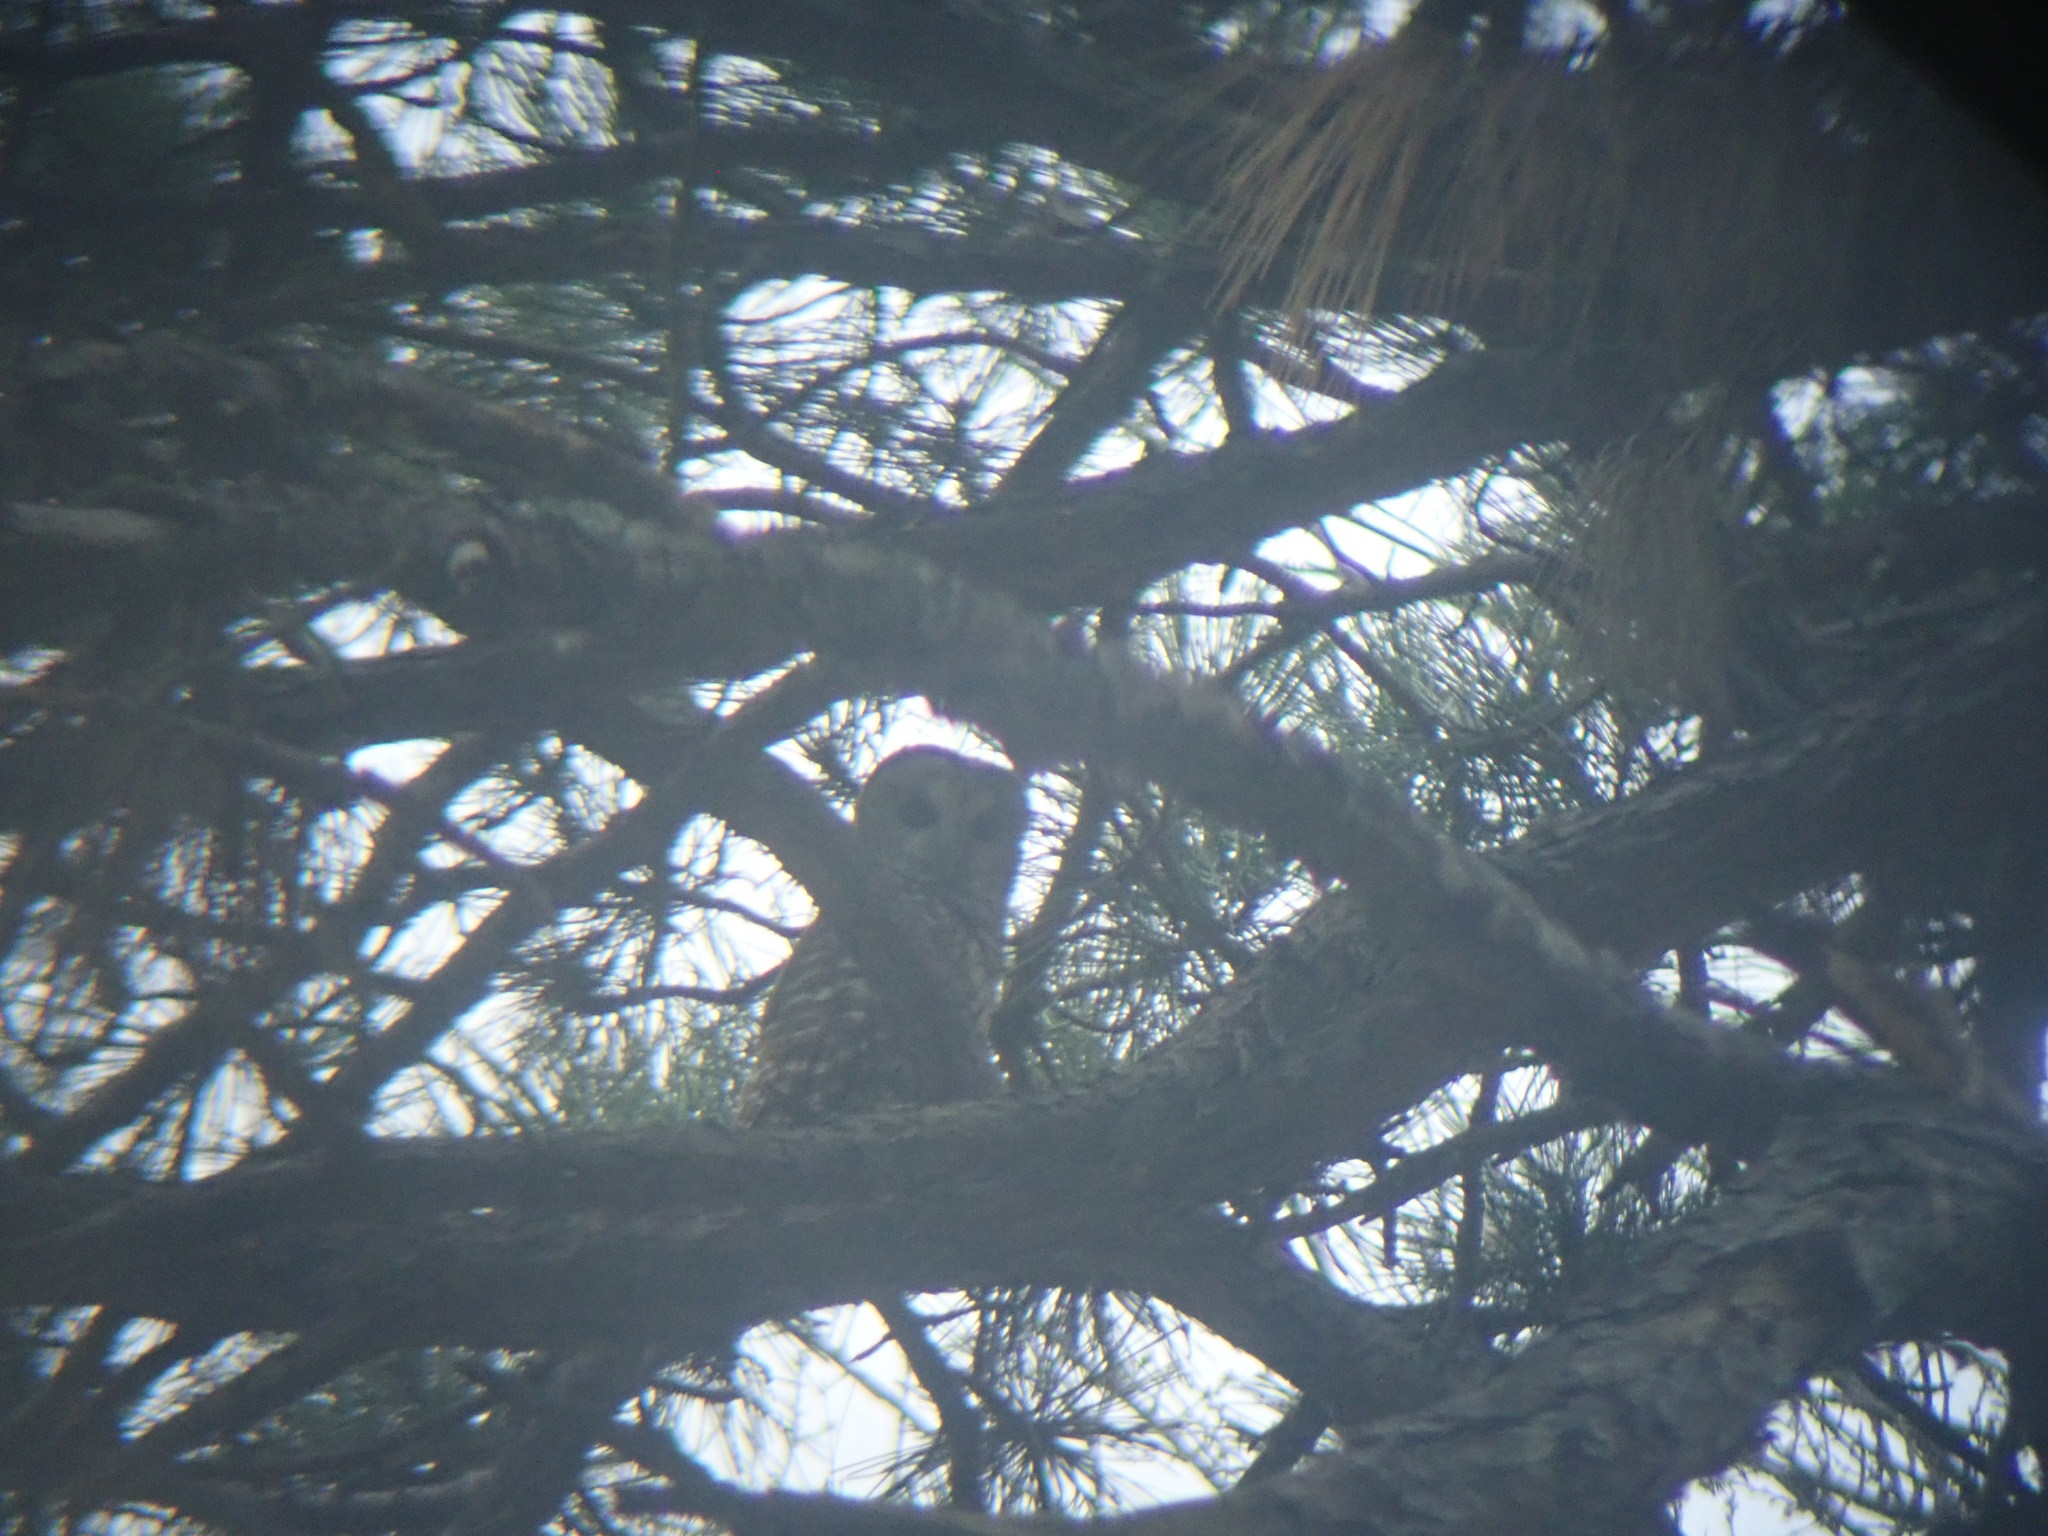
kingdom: Animalia
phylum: Chordata
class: Aves
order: Strigiformes
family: Strigidae
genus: Strix
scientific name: Strix varia
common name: Barred owl
